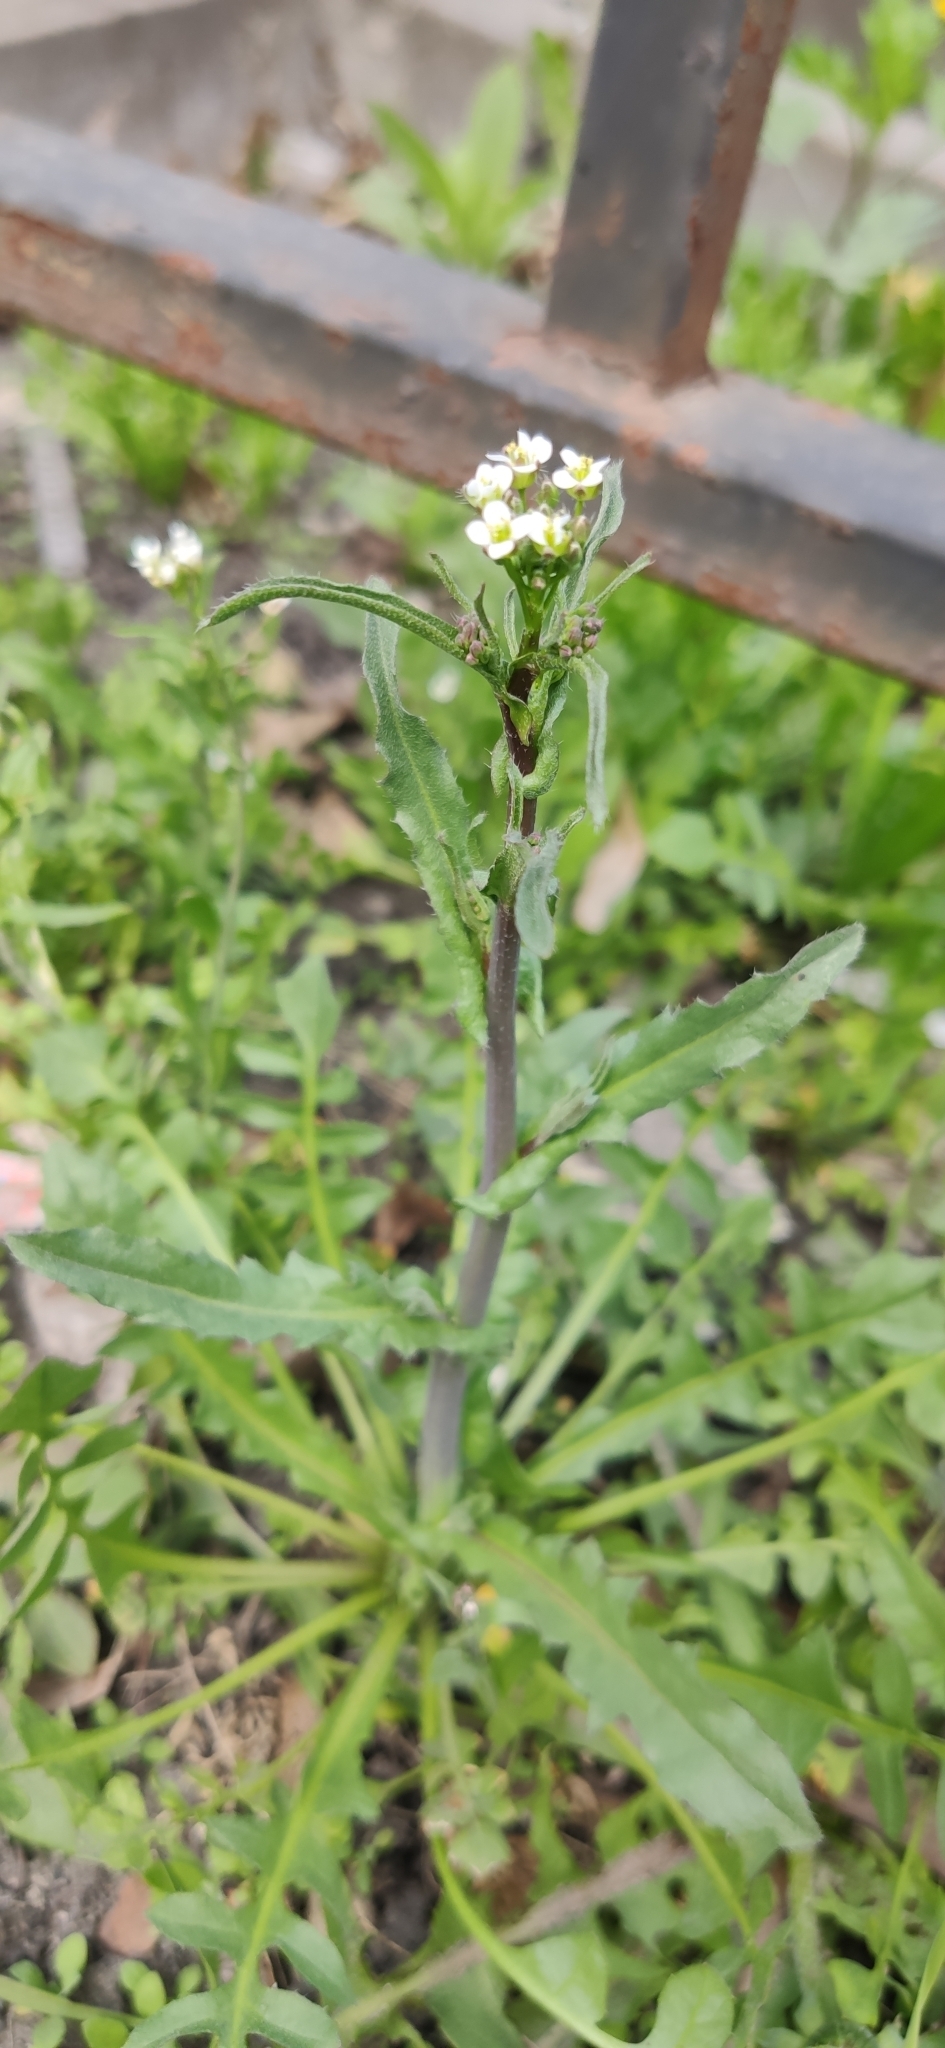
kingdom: Plantae
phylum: Tracheophyta
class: Magnoliopsida
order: Brassicales
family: Brassicaceae
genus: Capsella
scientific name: Capsella bursa-pastoris
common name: Shepherd's purse
